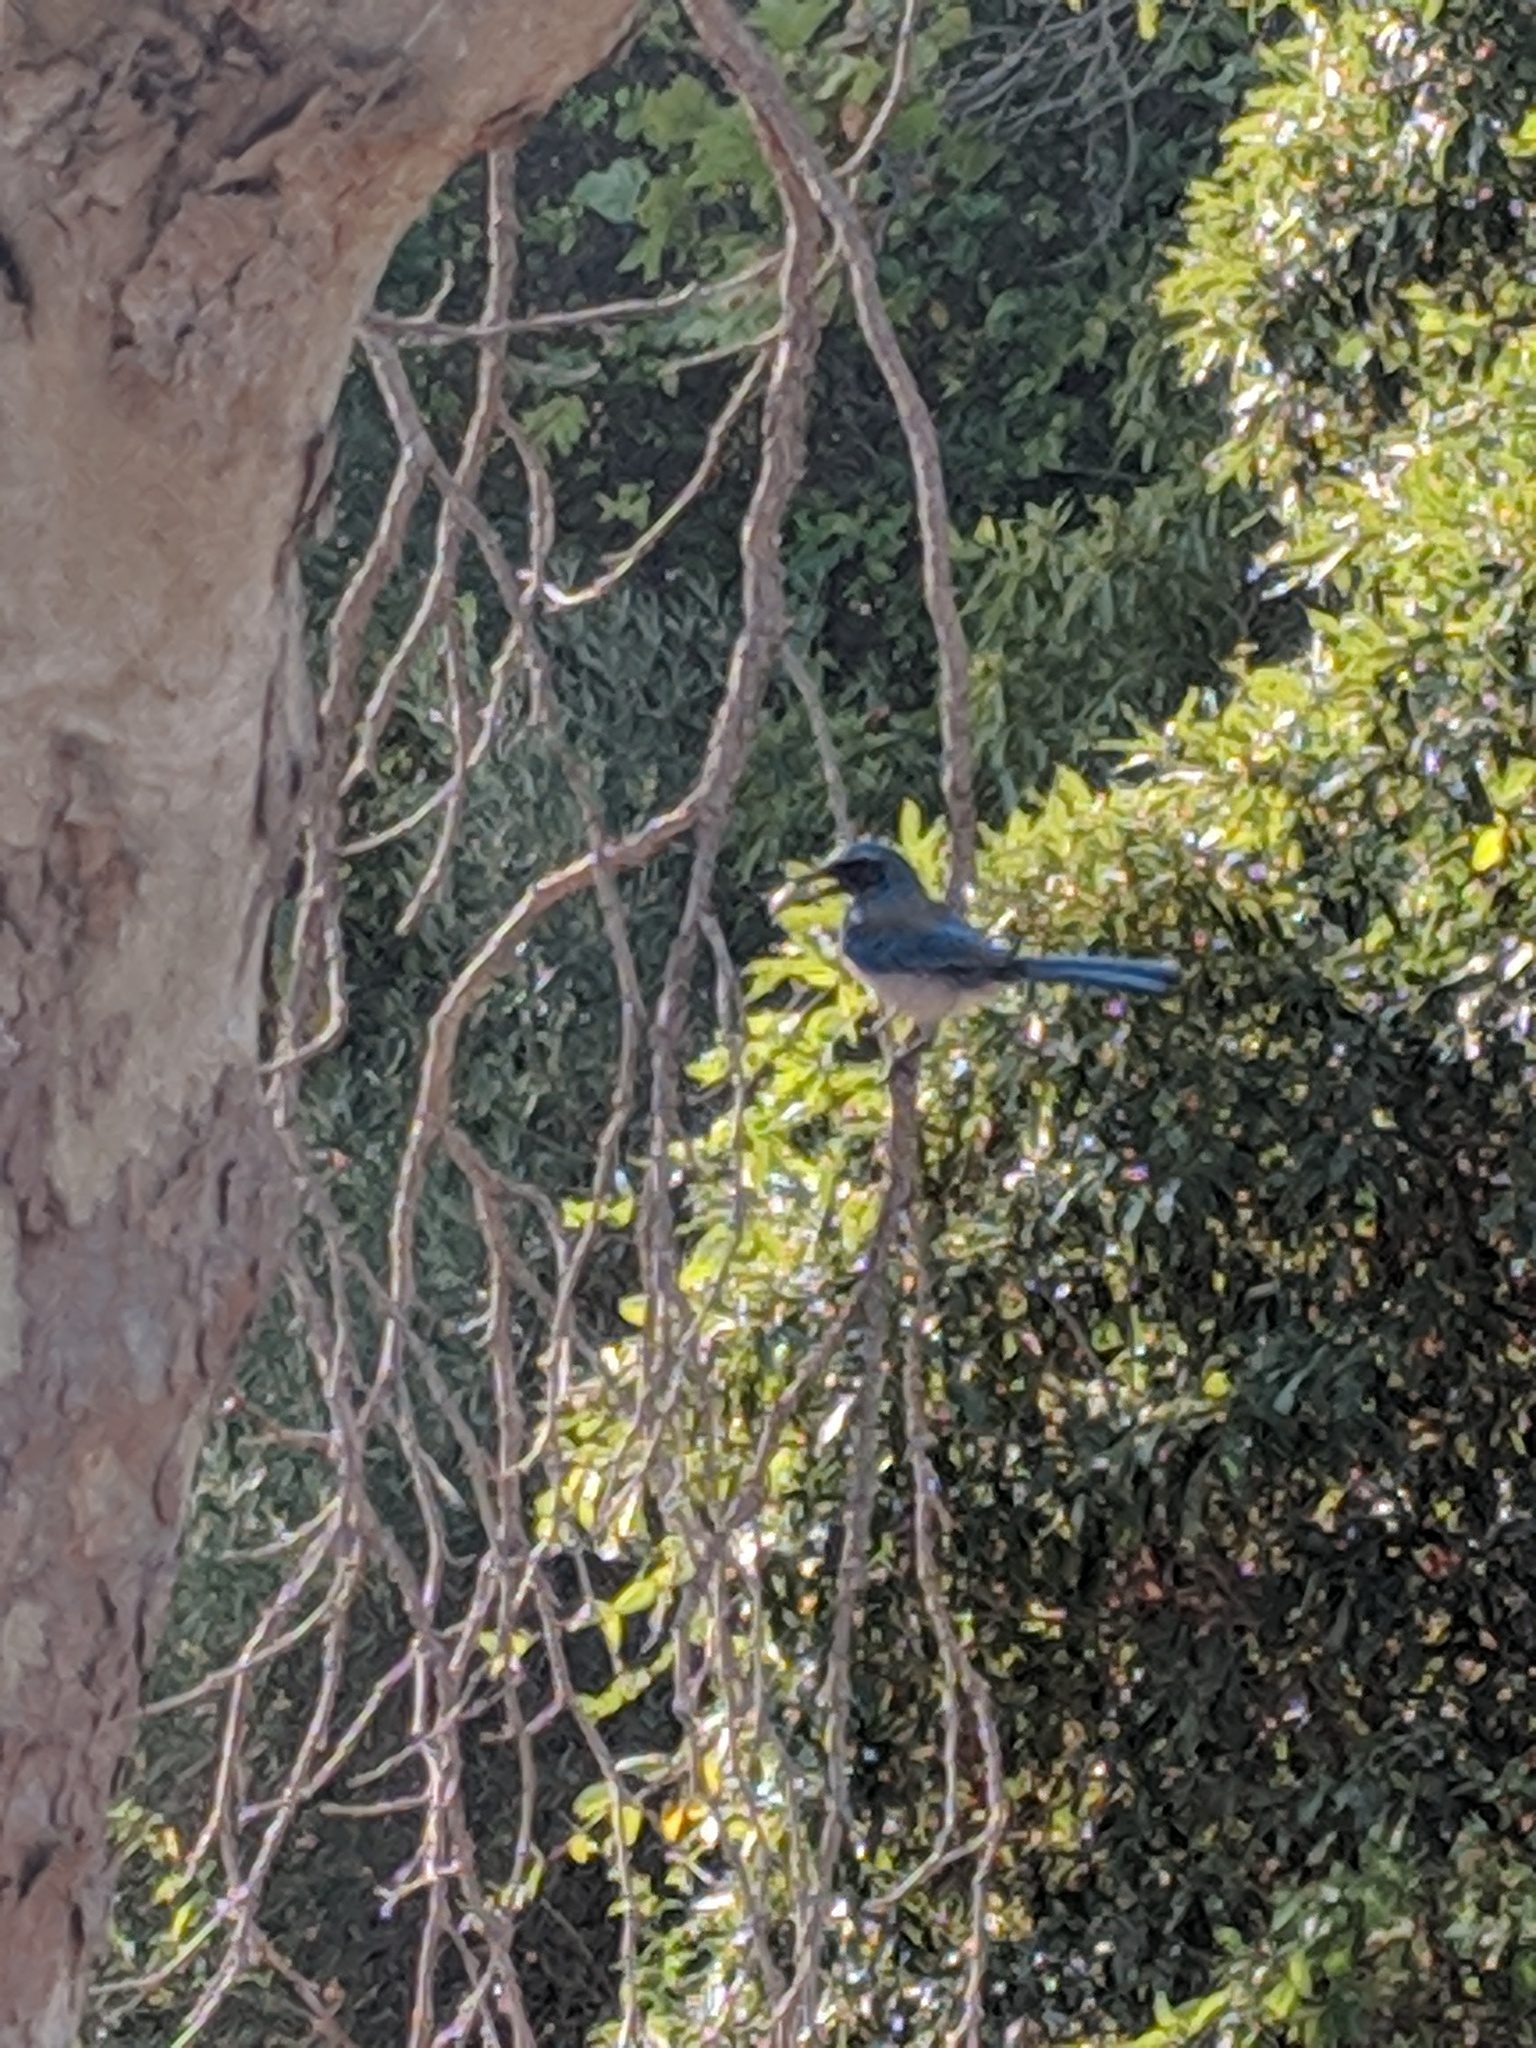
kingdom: Animalia
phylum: Chordata
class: Aves
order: Passeriformes
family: Corvidae
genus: Aphelocoma
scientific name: Aphelocoma californica
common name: California scrub-jay
